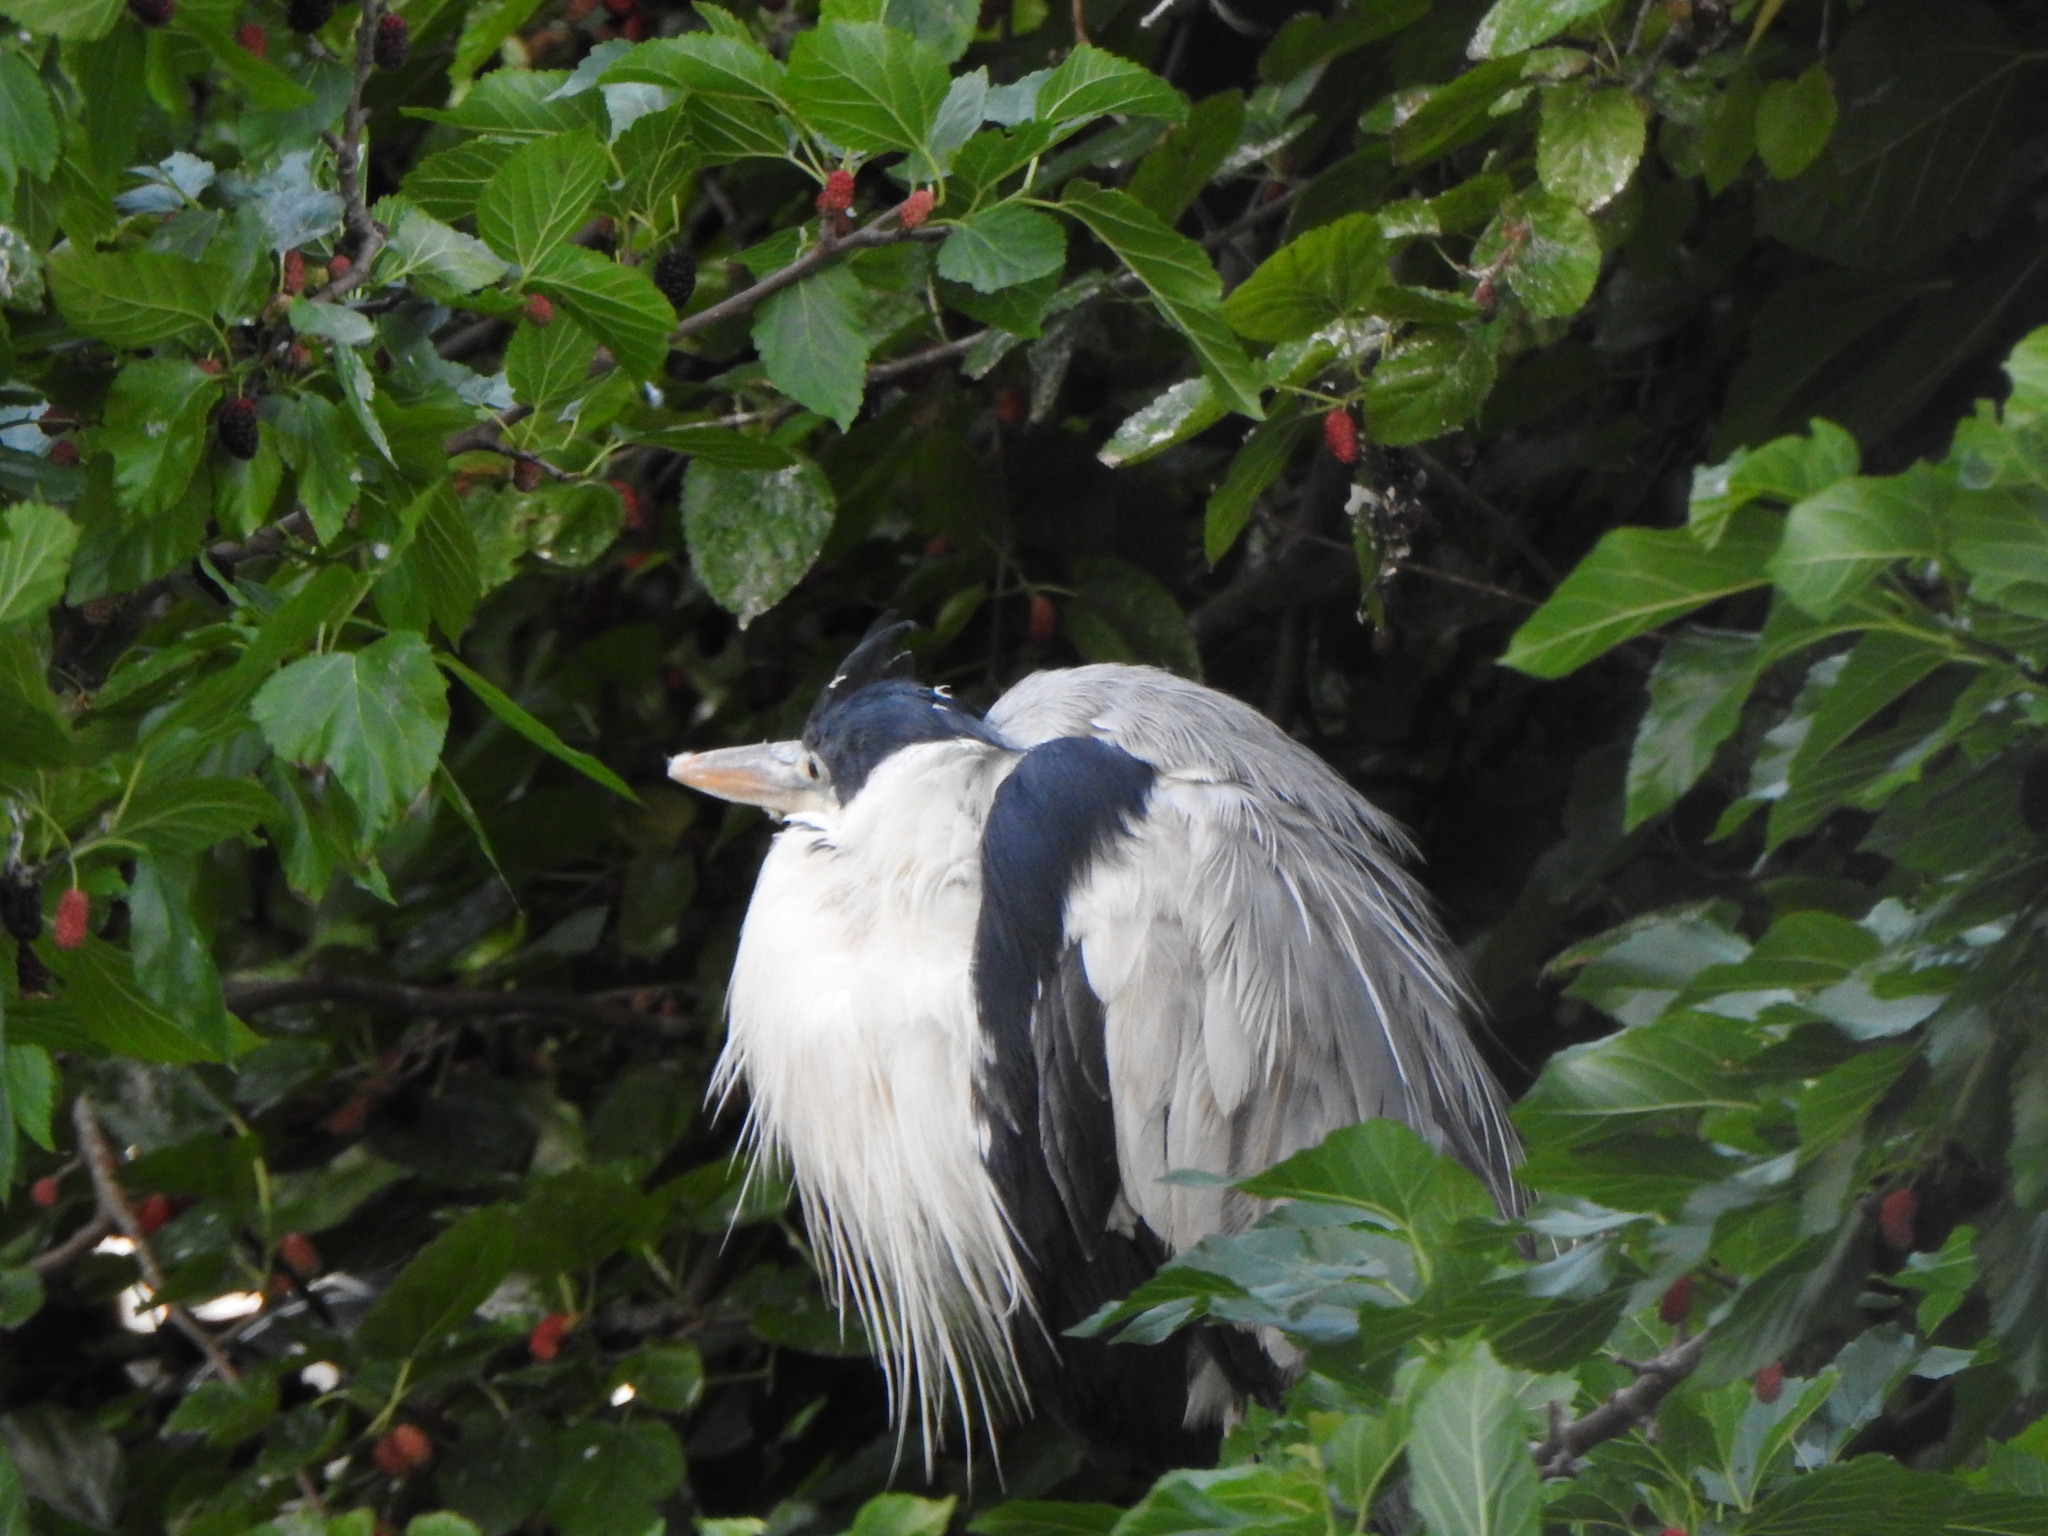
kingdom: Animalia
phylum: Chordata
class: Aves
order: Pelecaniformes
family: Ardeidae
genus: Ardea
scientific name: Ardea cocoi
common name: Cocoi heron
